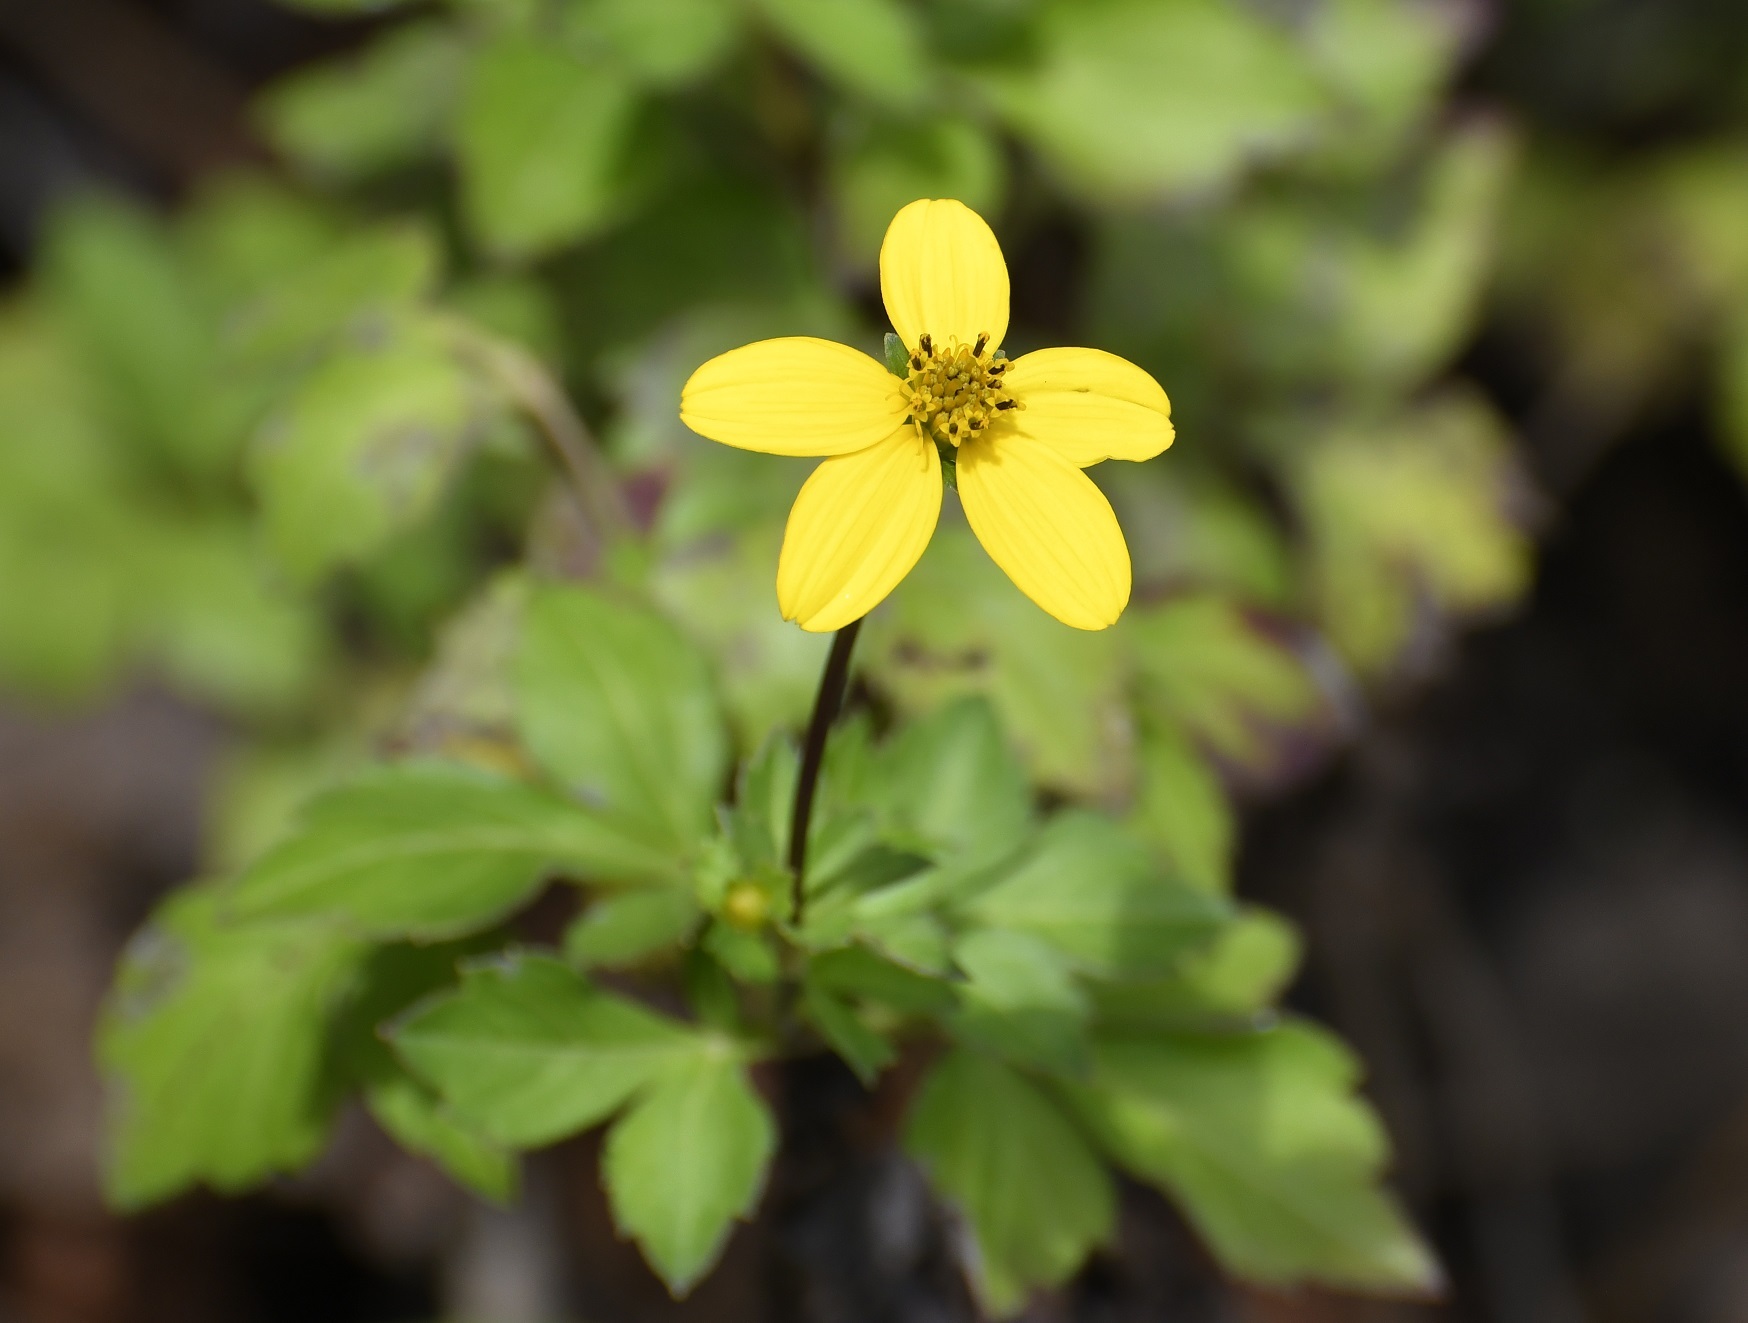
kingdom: Plantae
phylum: Tracheophyta
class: Magnoliopsida
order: Asterales
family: Asteraceae
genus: Bidens
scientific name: Bidens ostruthioides
